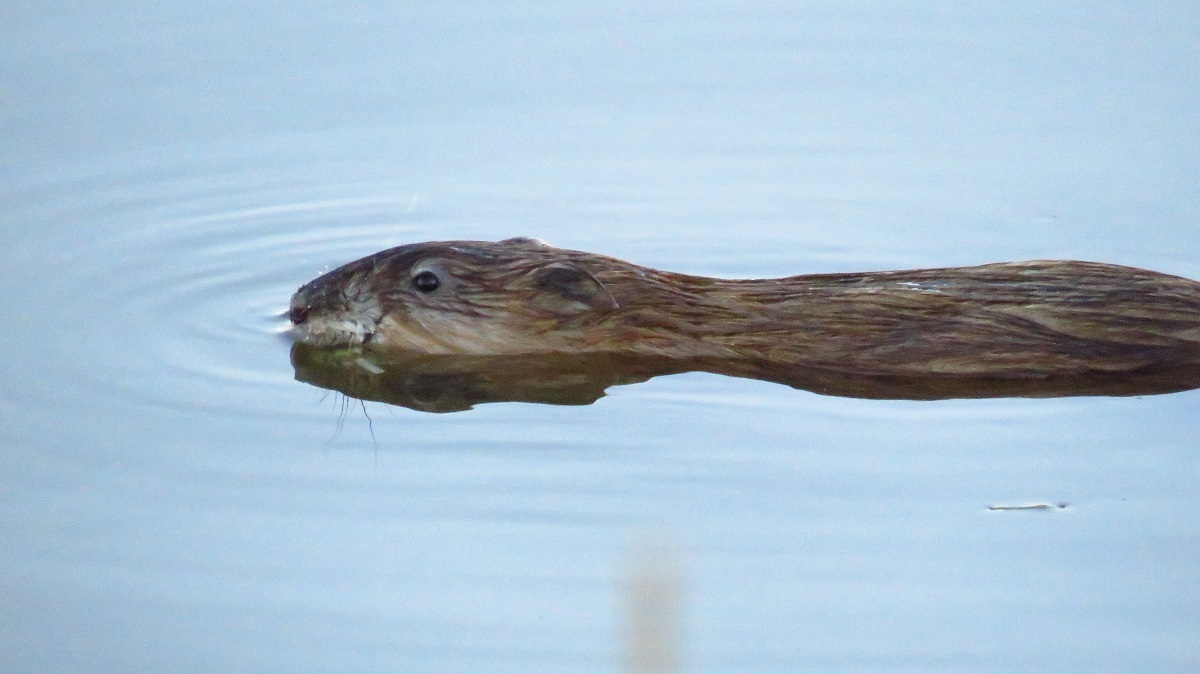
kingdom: Animalia
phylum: Chordata
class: Mammalia
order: Rodentia
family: Cricetidae
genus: Ondatra
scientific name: Ondatra zibethicus
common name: Muskrat
